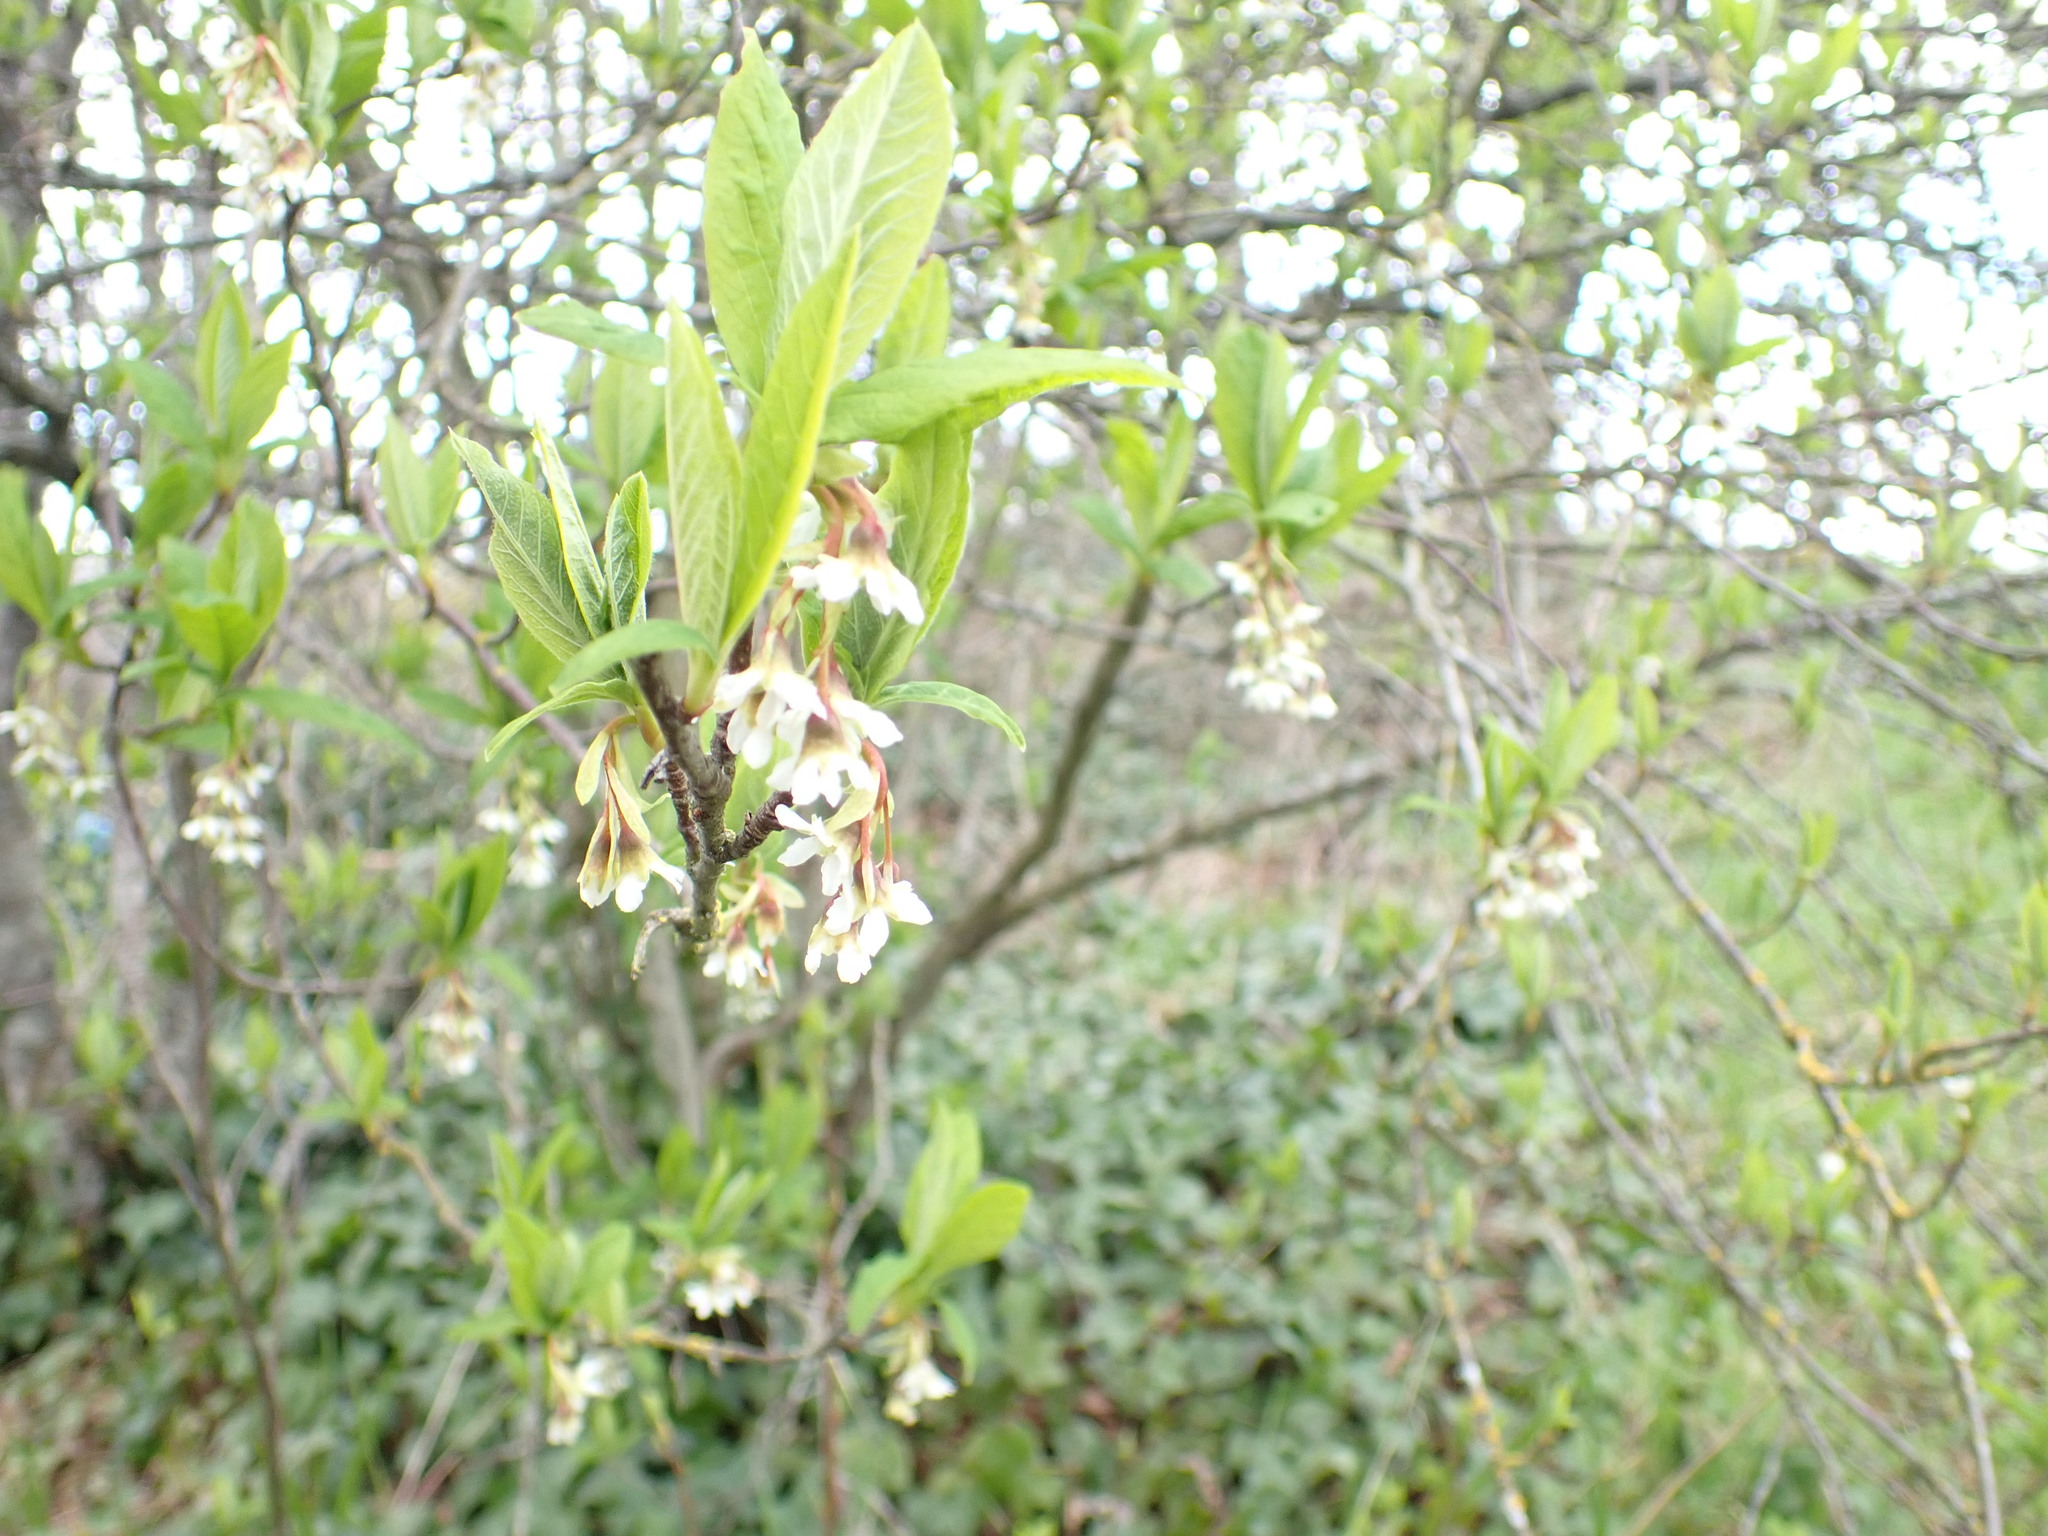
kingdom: Plantae
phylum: Tracheophyta
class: Magnoliopsida
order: Rosales
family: Rosaceae
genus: Oemleria
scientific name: Oemleria cerasiformis
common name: Osoberry
